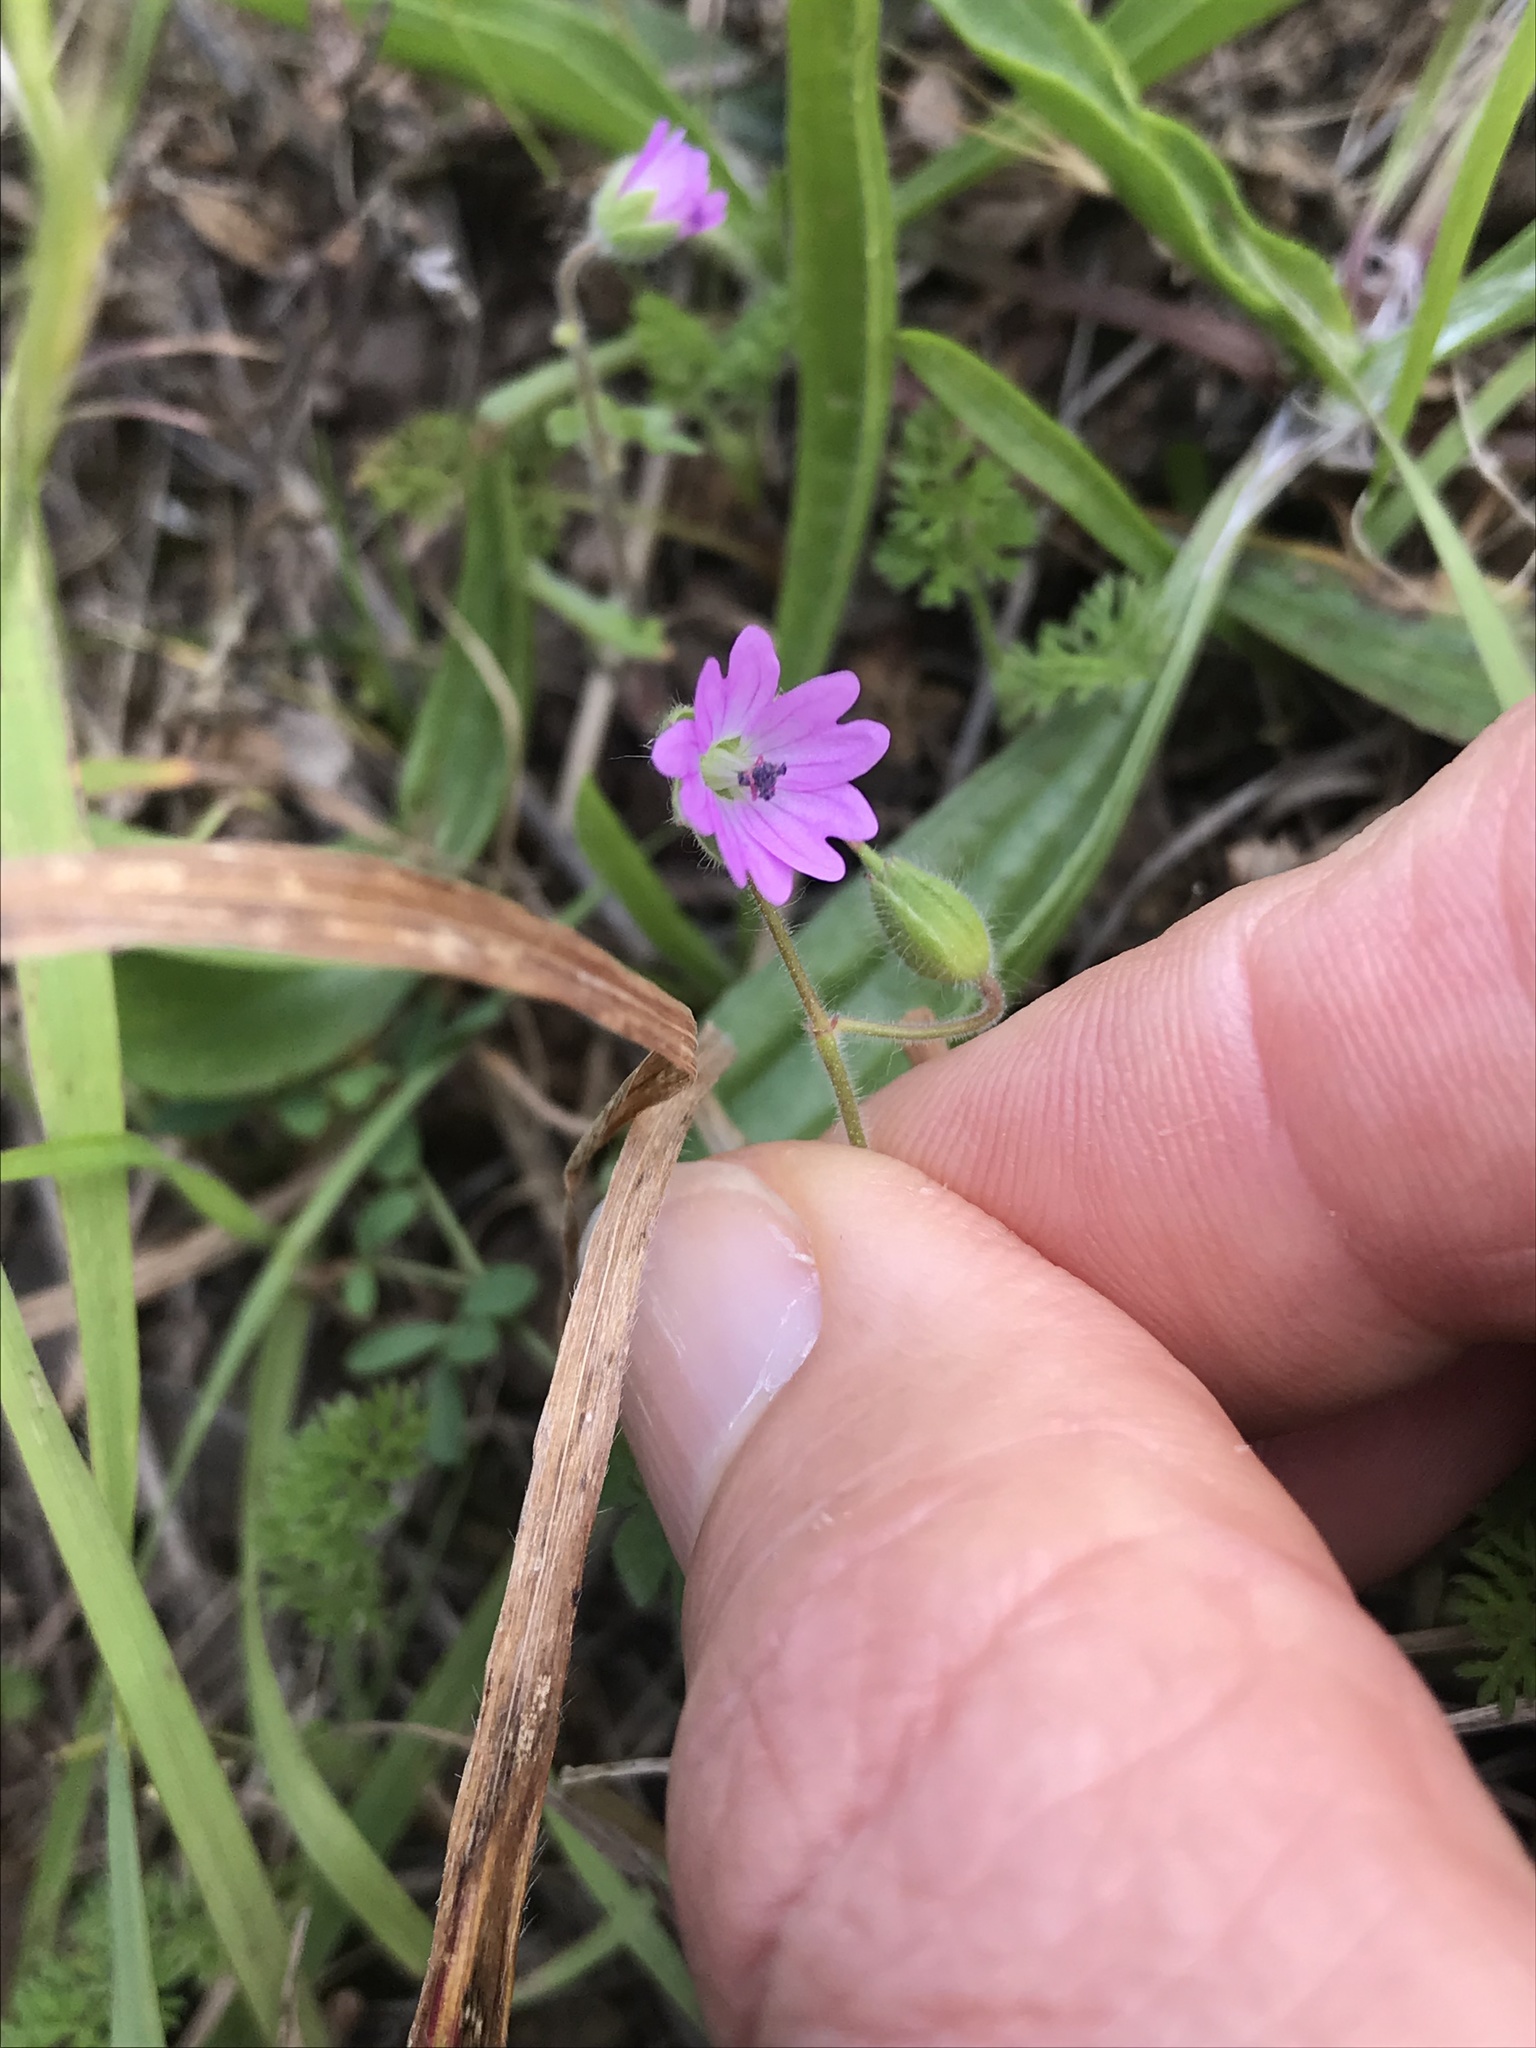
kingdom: Plantae
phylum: Tracheophyta
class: Magnoliopsida
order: Geraniales
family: Geraniaceae
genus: Geranium
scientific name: Geranium molle
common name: Dove's-foot crane's-bill
